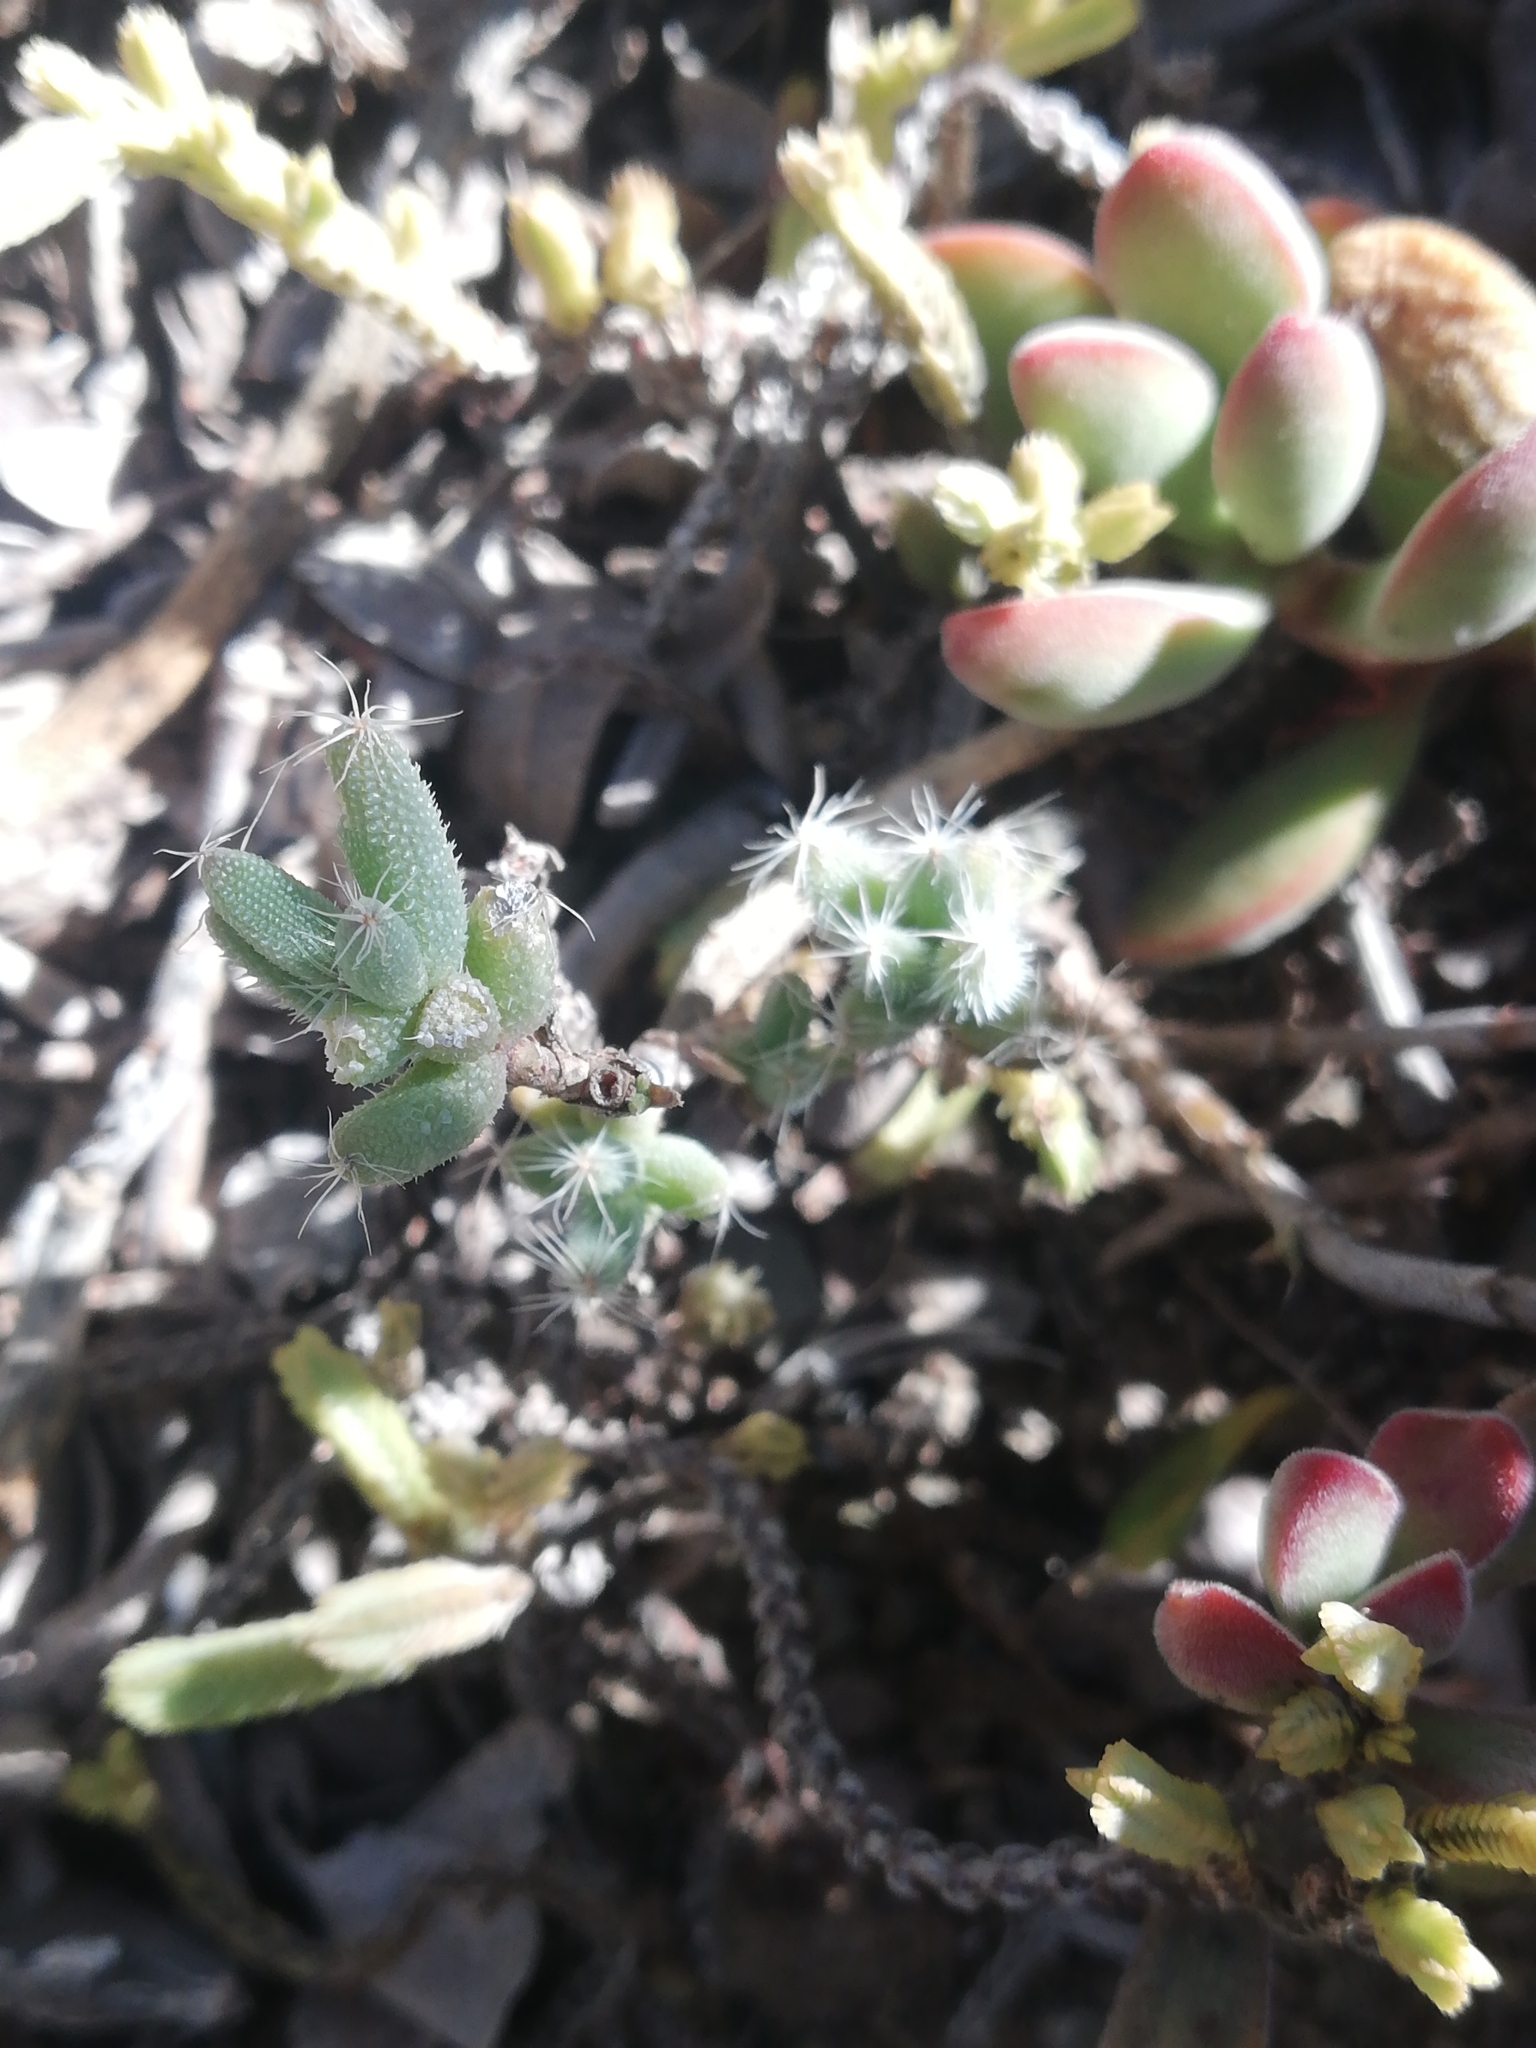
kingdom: Plantae
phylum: Tracheophyta
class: Magnoliopsida
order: Caryophyllales
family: Aizoaceae
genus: Trichodiadema
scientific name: Trichodiadema setuliferum
